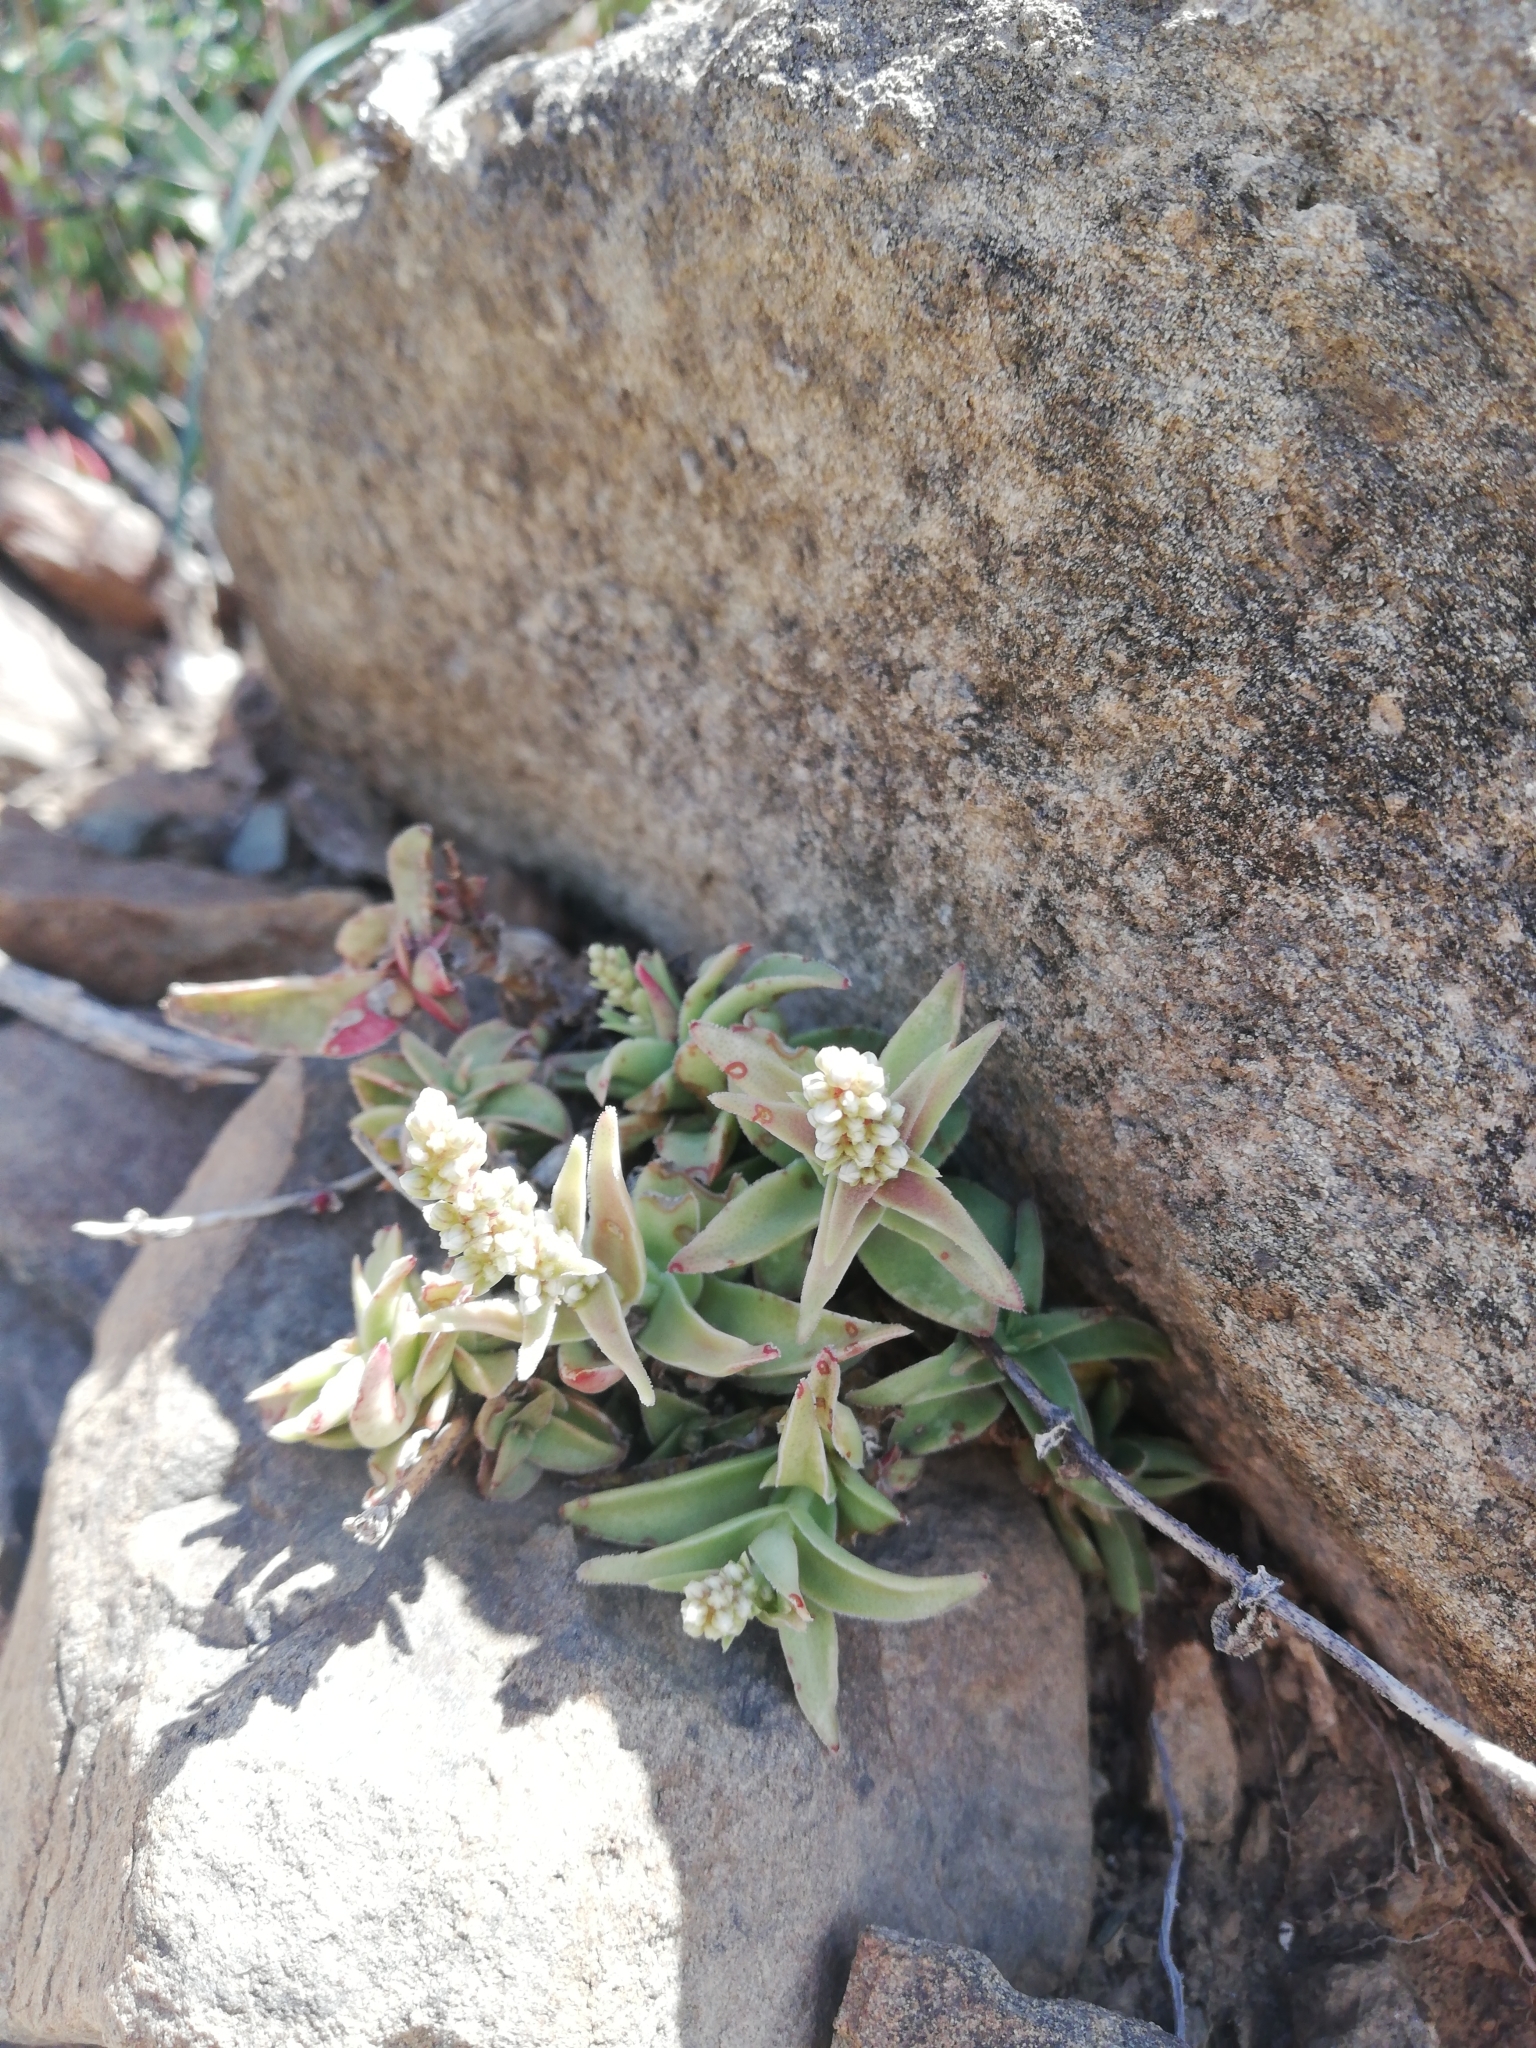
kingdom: Plantae
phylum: Tracheophyta
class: Magnoliopsida
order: Saxifragales
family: Crassulaceae
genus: Crassula
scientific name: Crassula capitella
